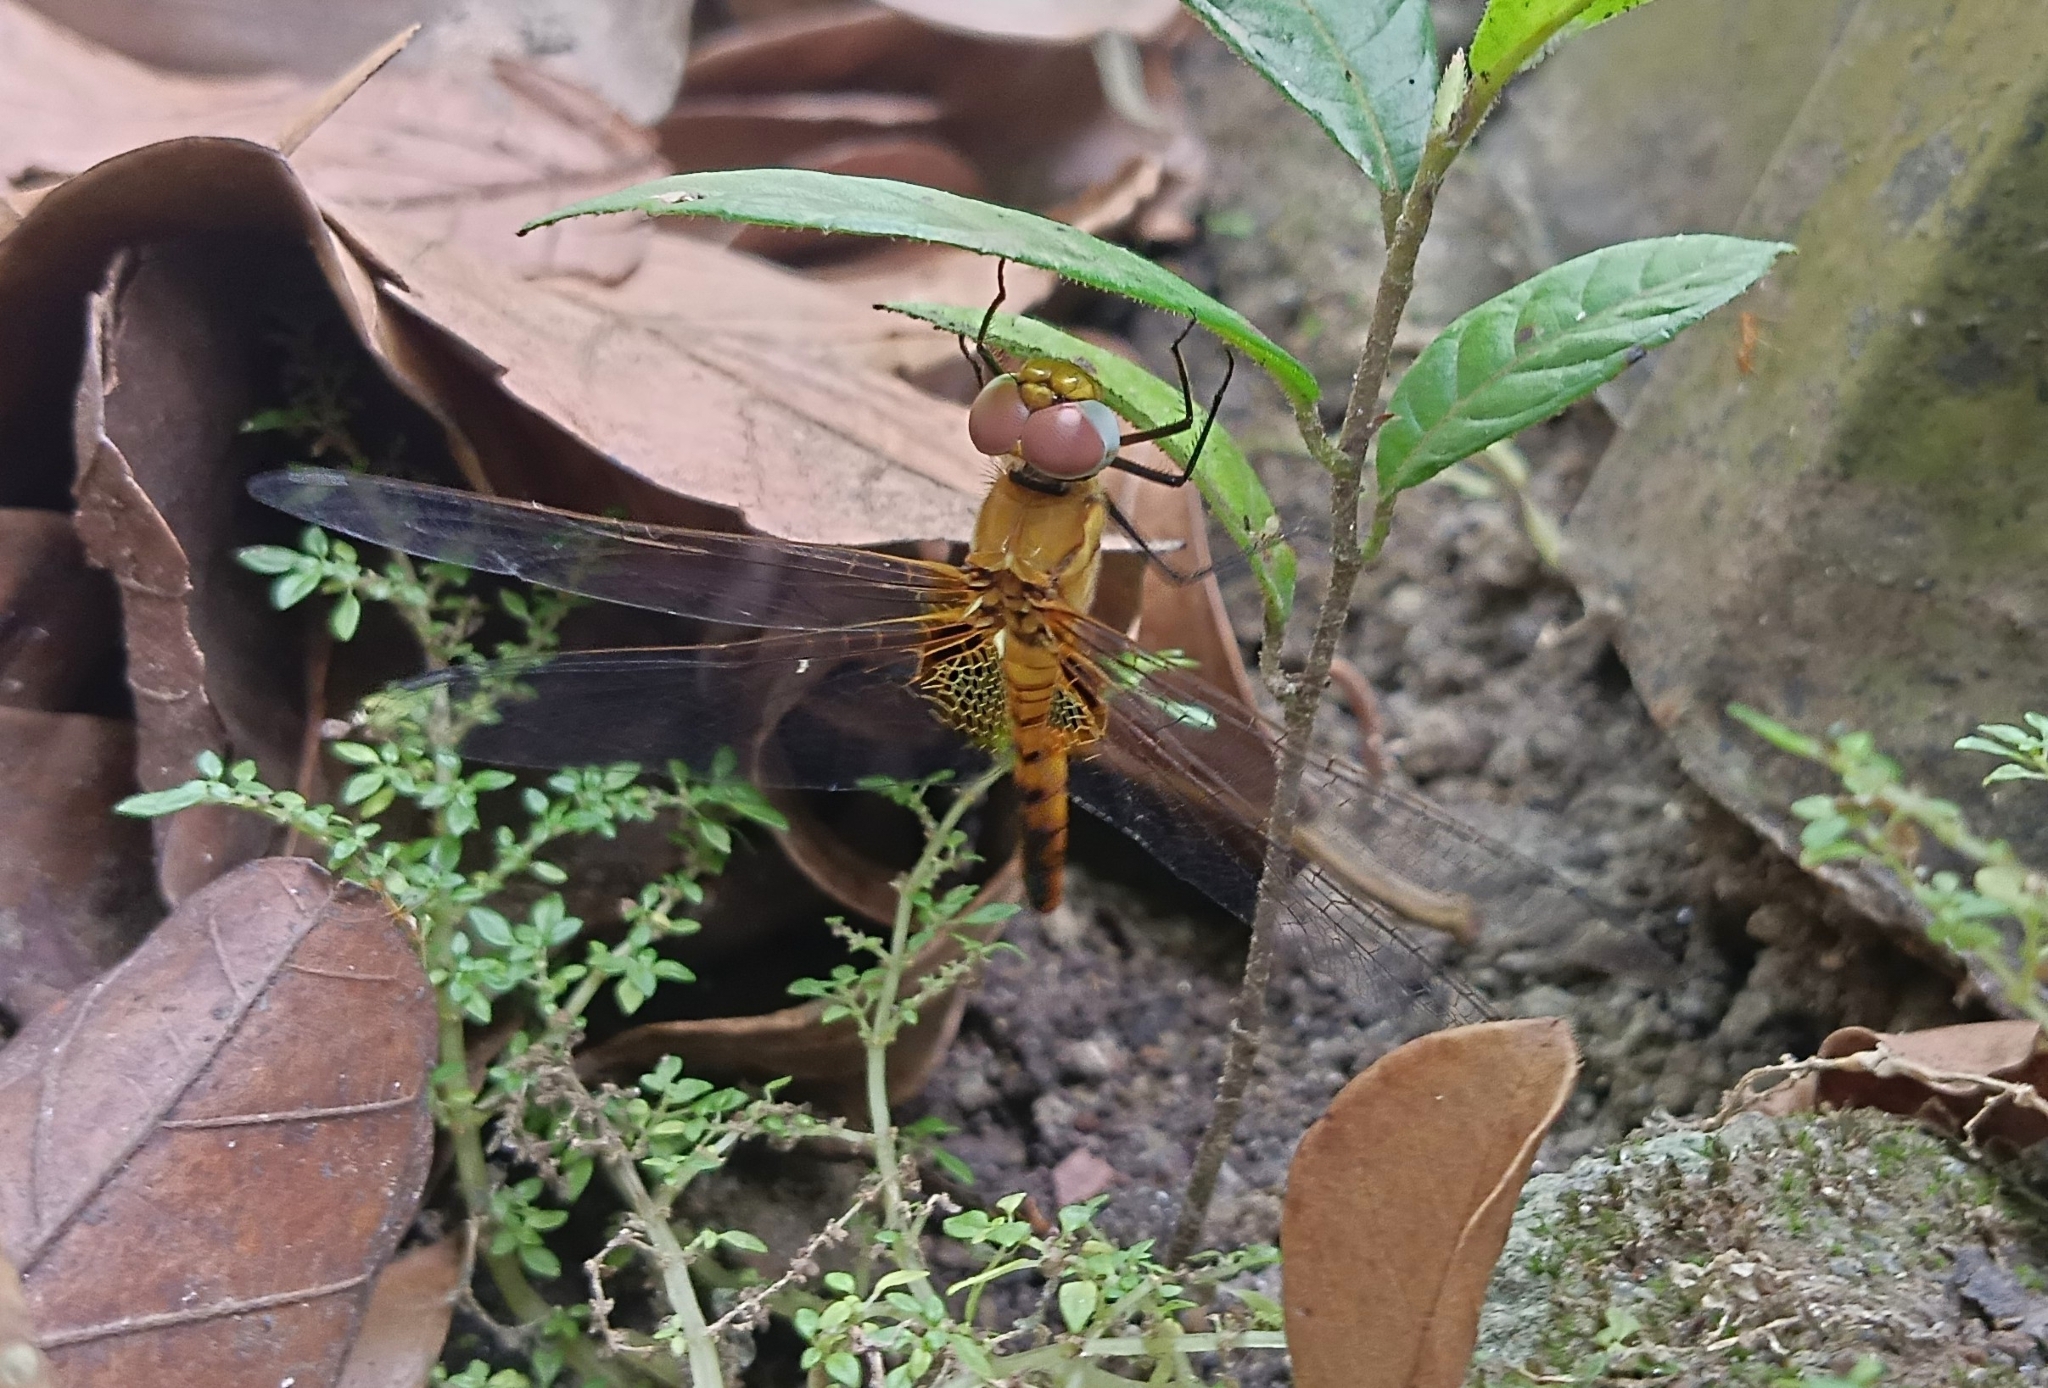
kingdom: Animalia
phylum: Arthropoda
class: Insecta
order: Odonata
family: Libellulidae
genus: Urothemis
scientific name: Urothemis signata
